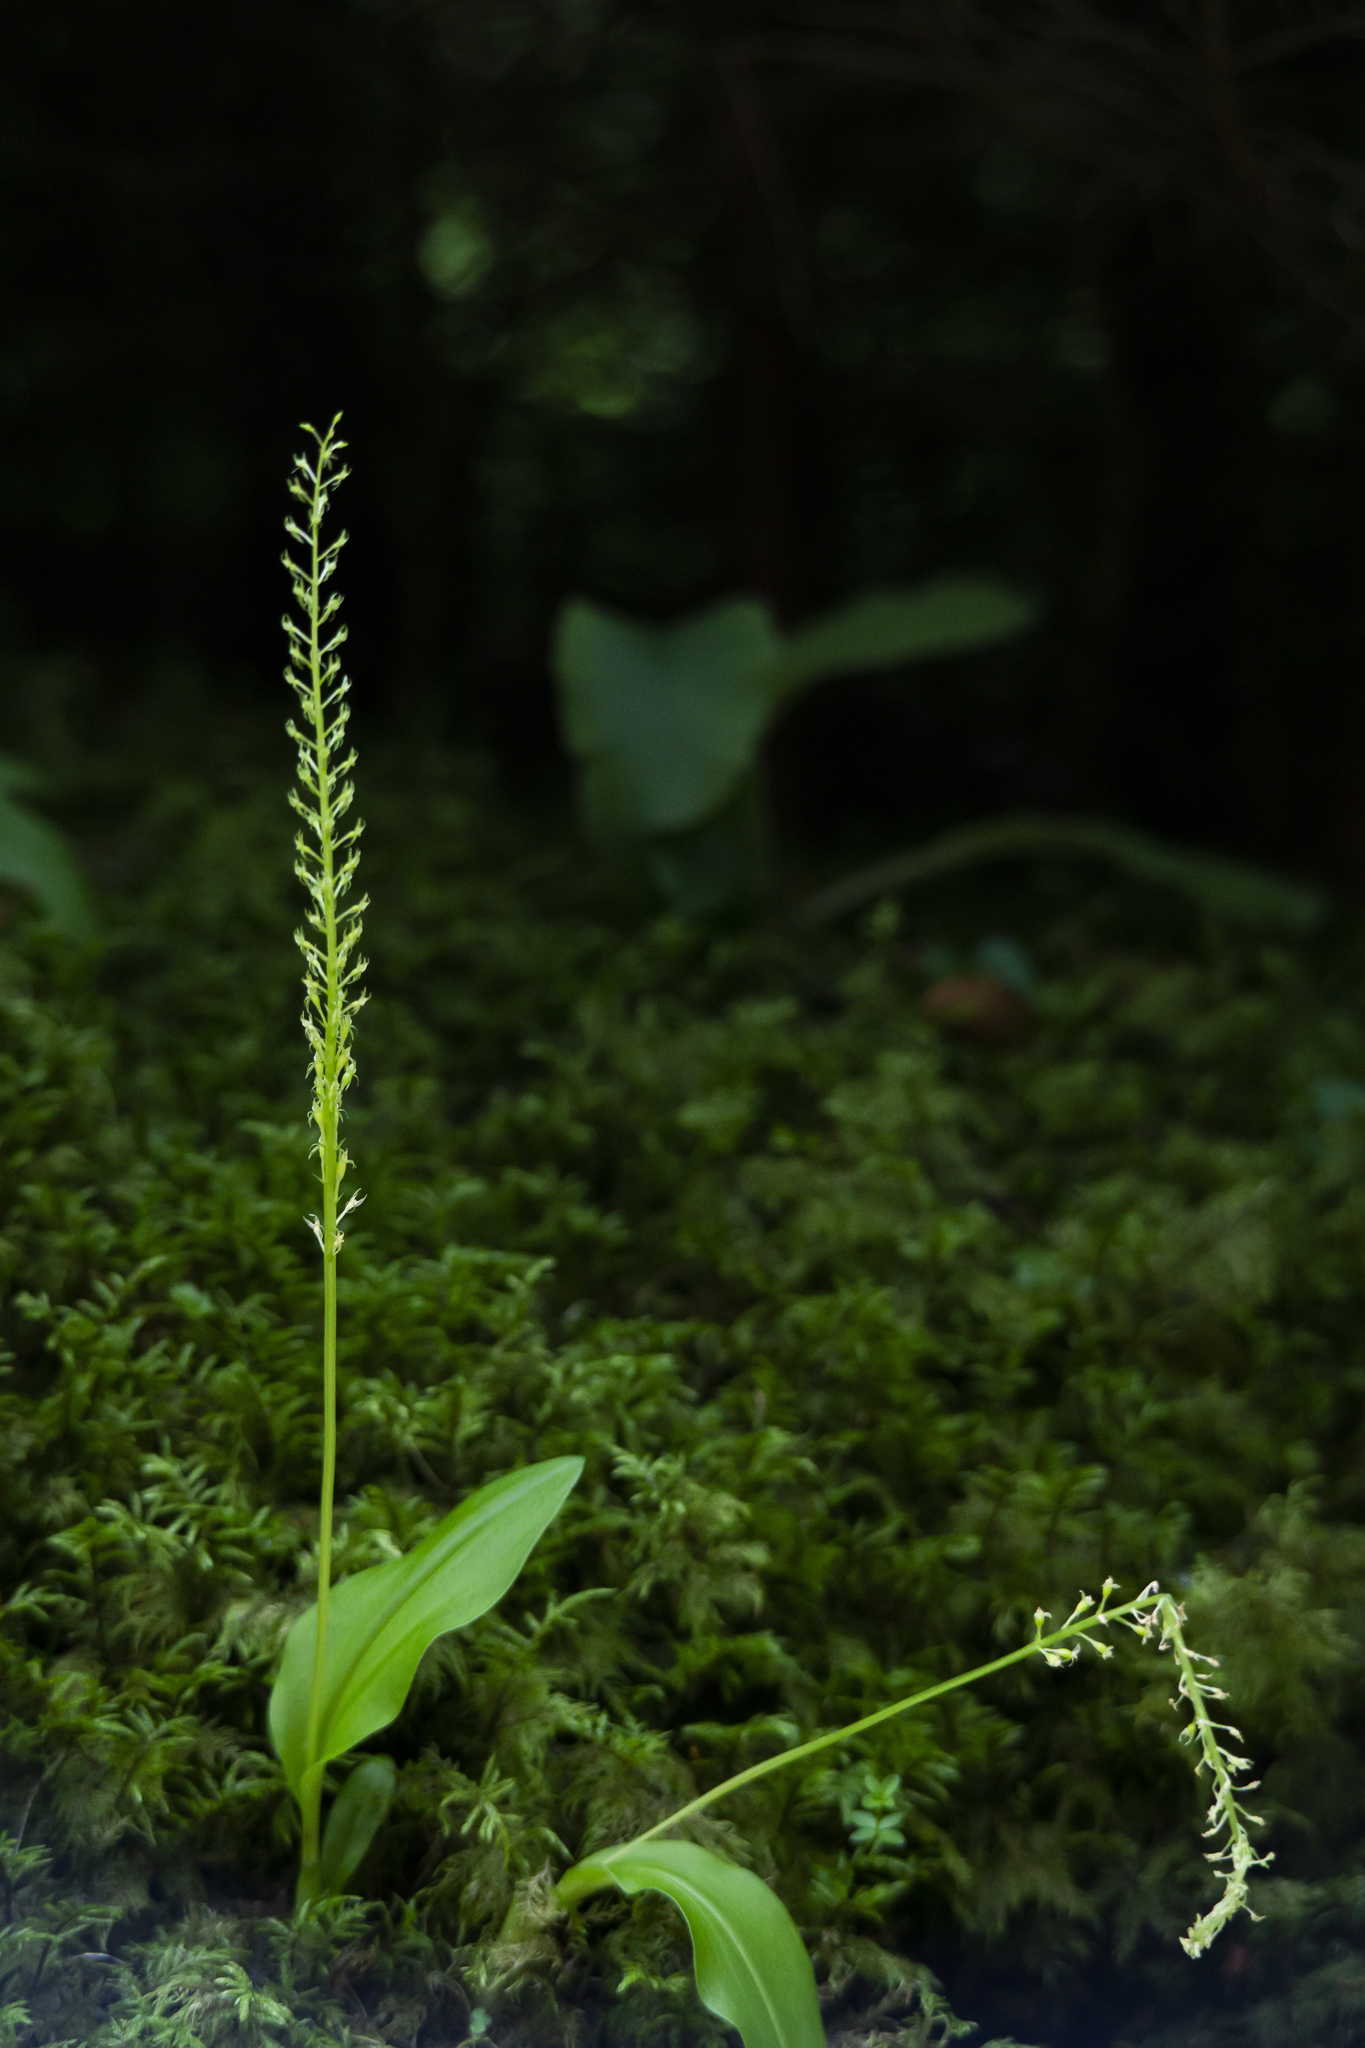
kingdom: Plantae
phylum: Tracheophyta
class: Liliopsida
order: Asparagales
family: Orchidaceae
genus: Malaxis
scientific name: Malaxis monophyllos
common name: White adder's-mouth
